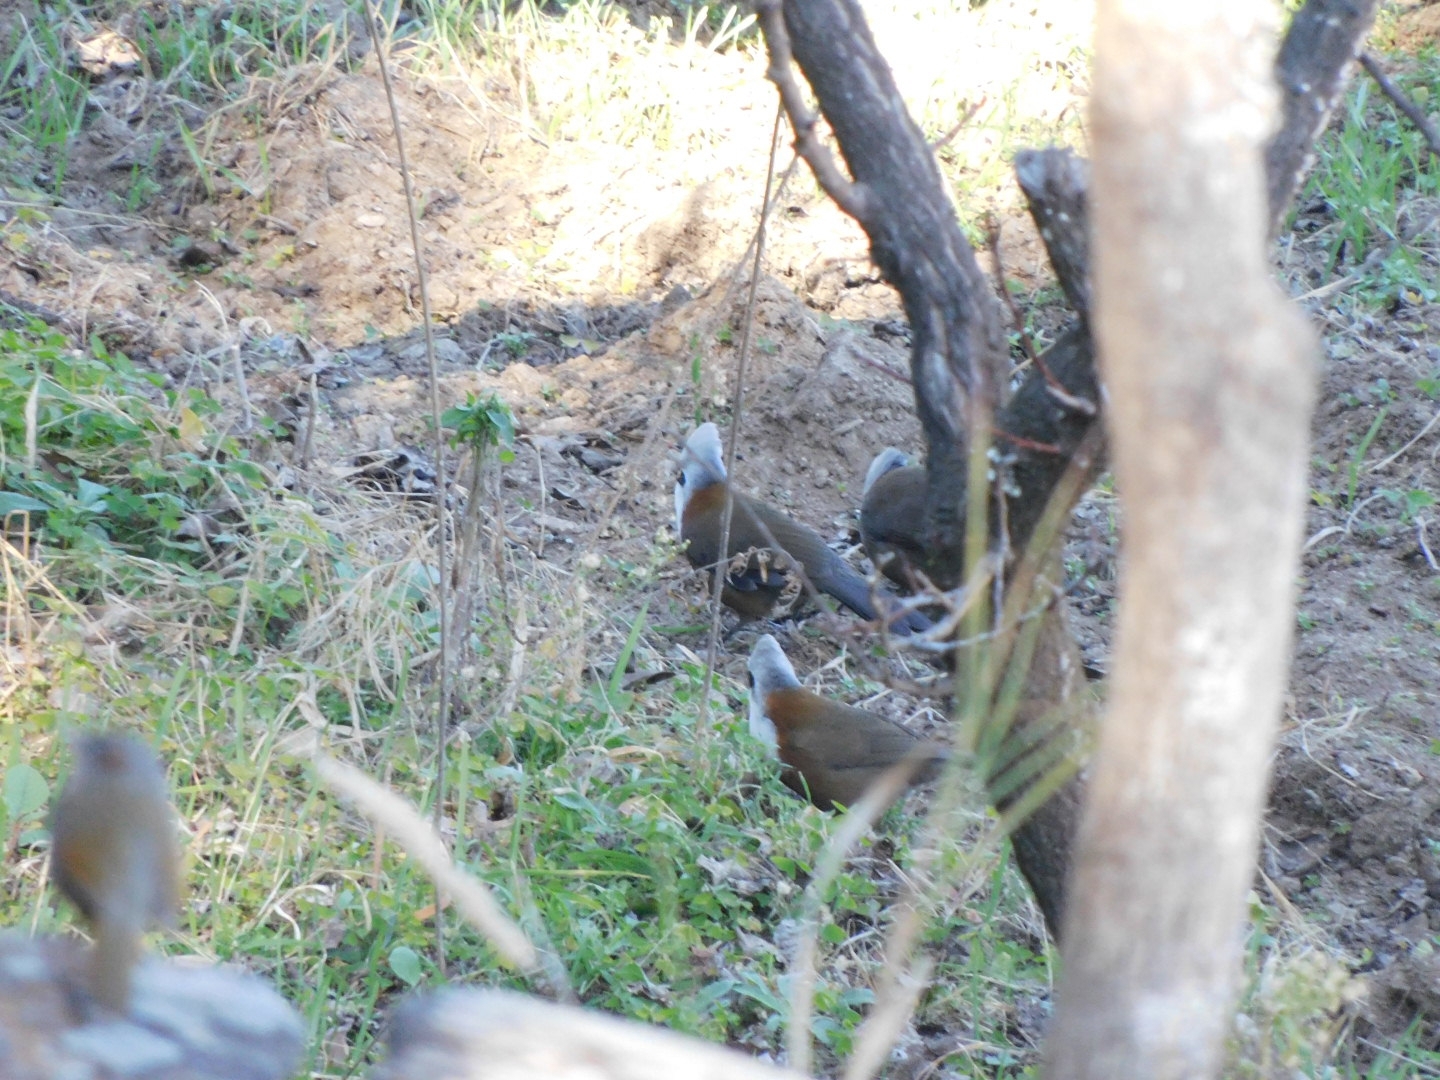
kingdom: Animalia
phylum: Chordata
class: Aves
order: Passeriformes
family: Leiothrichidae
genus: Garrulax
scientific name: Garrulax leucolophus
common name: White-crested laughingthrush
